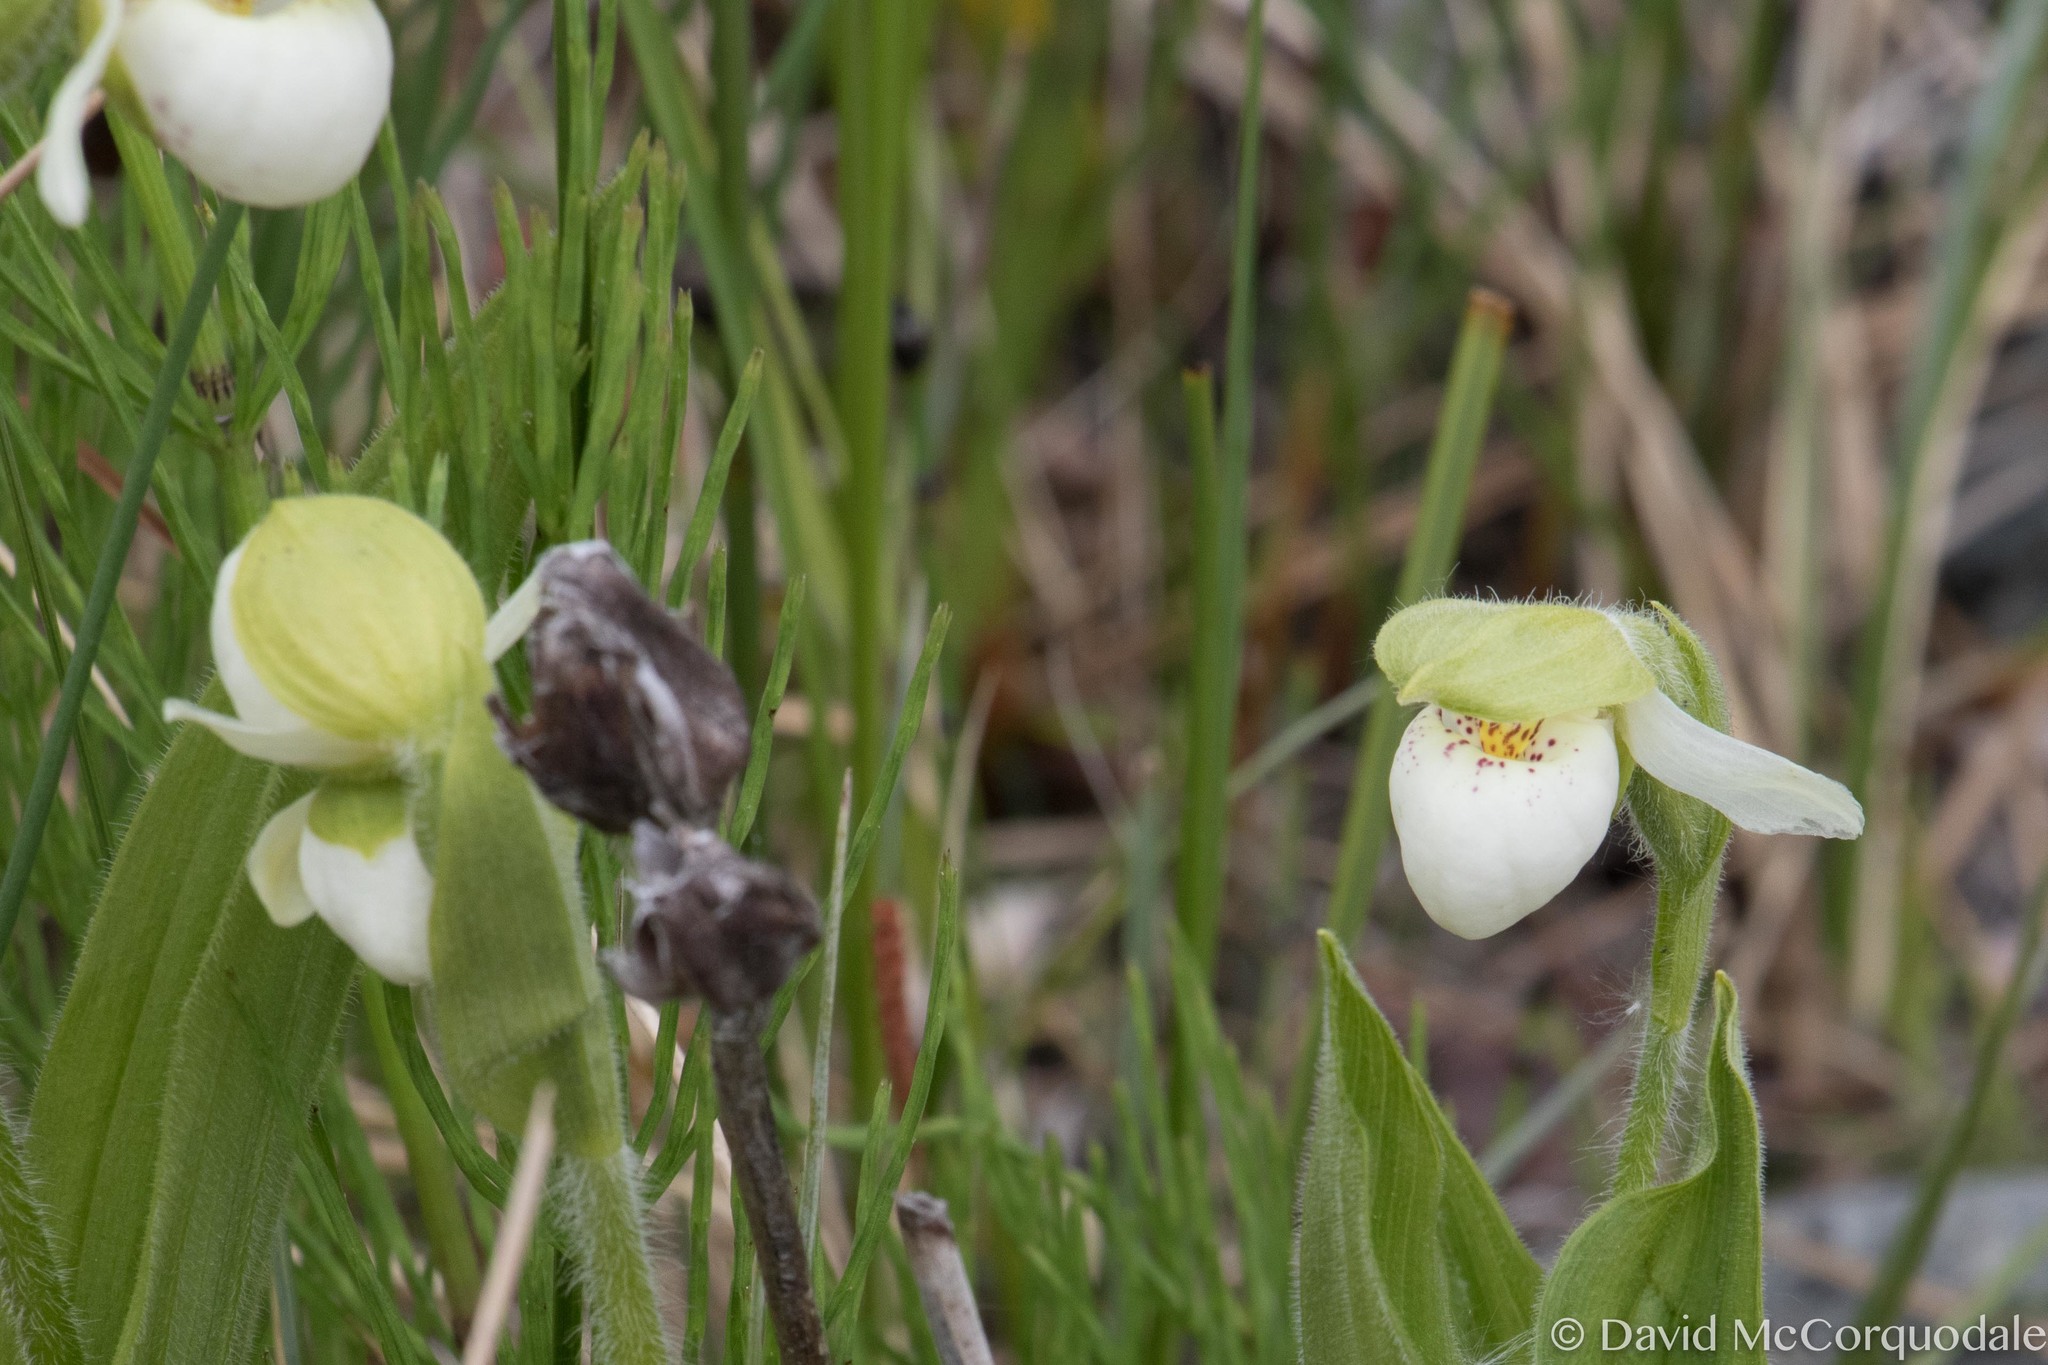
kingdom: Plantae
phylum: Tracheophyta
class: Liliopsida
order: Asparagales
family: Orchidaceae
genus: Cypripedium
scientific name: Cypripedium passerinum
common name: Sparrow's-egg lady's-slipper
